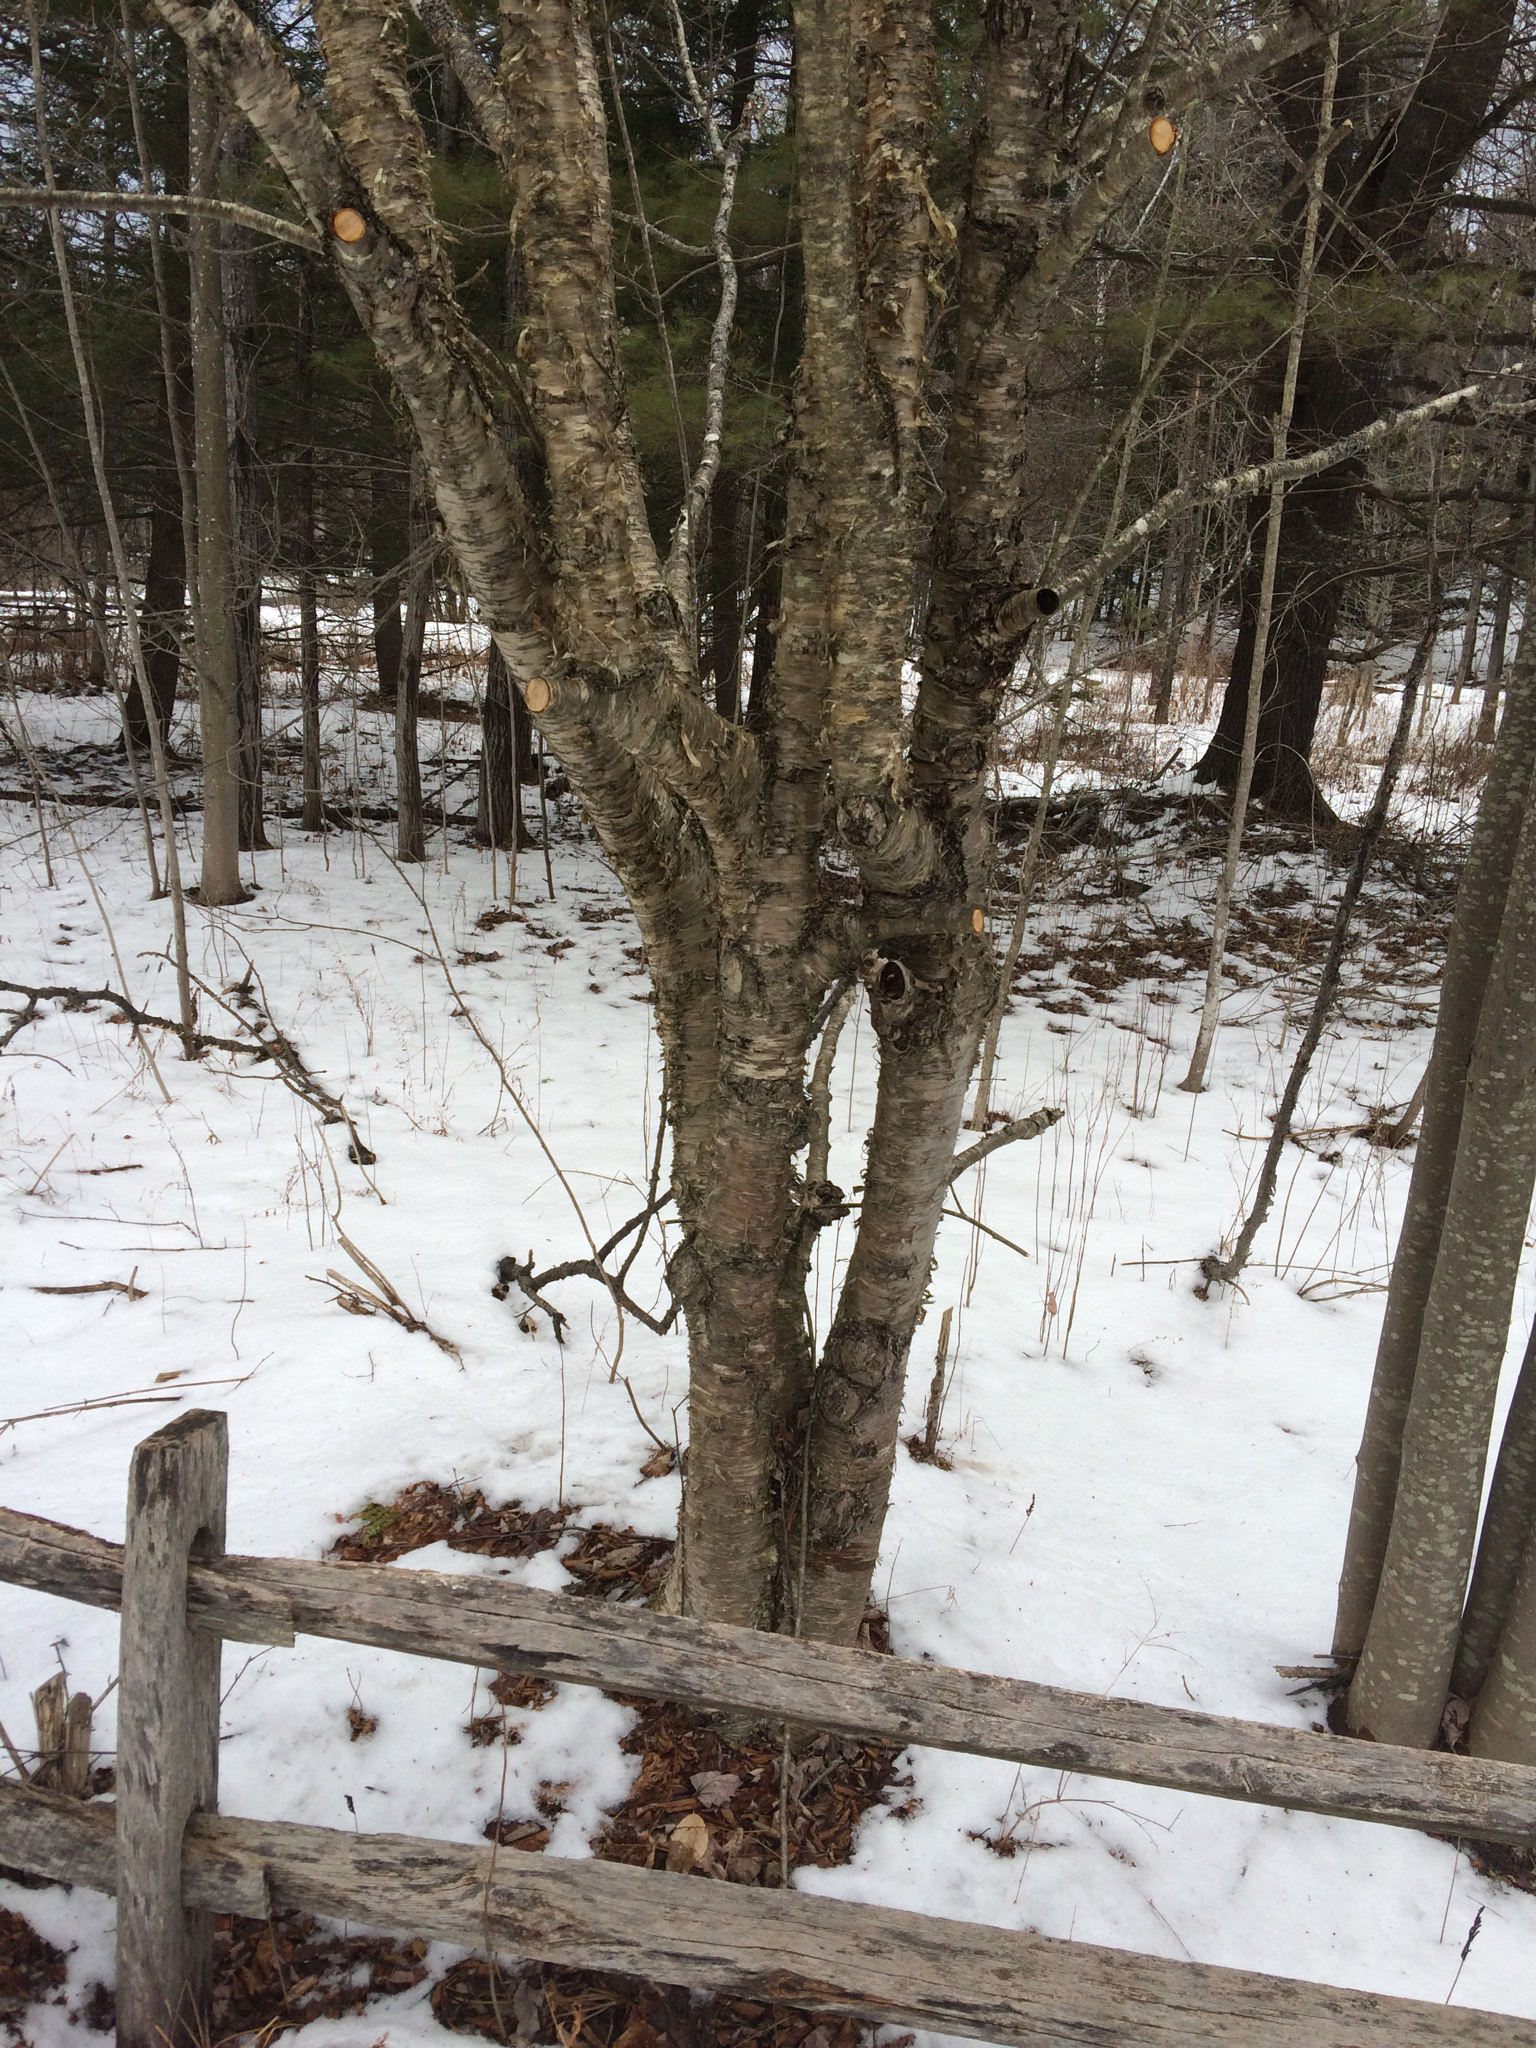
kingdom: Plantae
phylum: Tracheophyta
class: Magnoliopsida
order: Fagales
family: Betulaceae
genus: Betula
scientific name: Betula alleghaniensis
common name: Yellow birch
